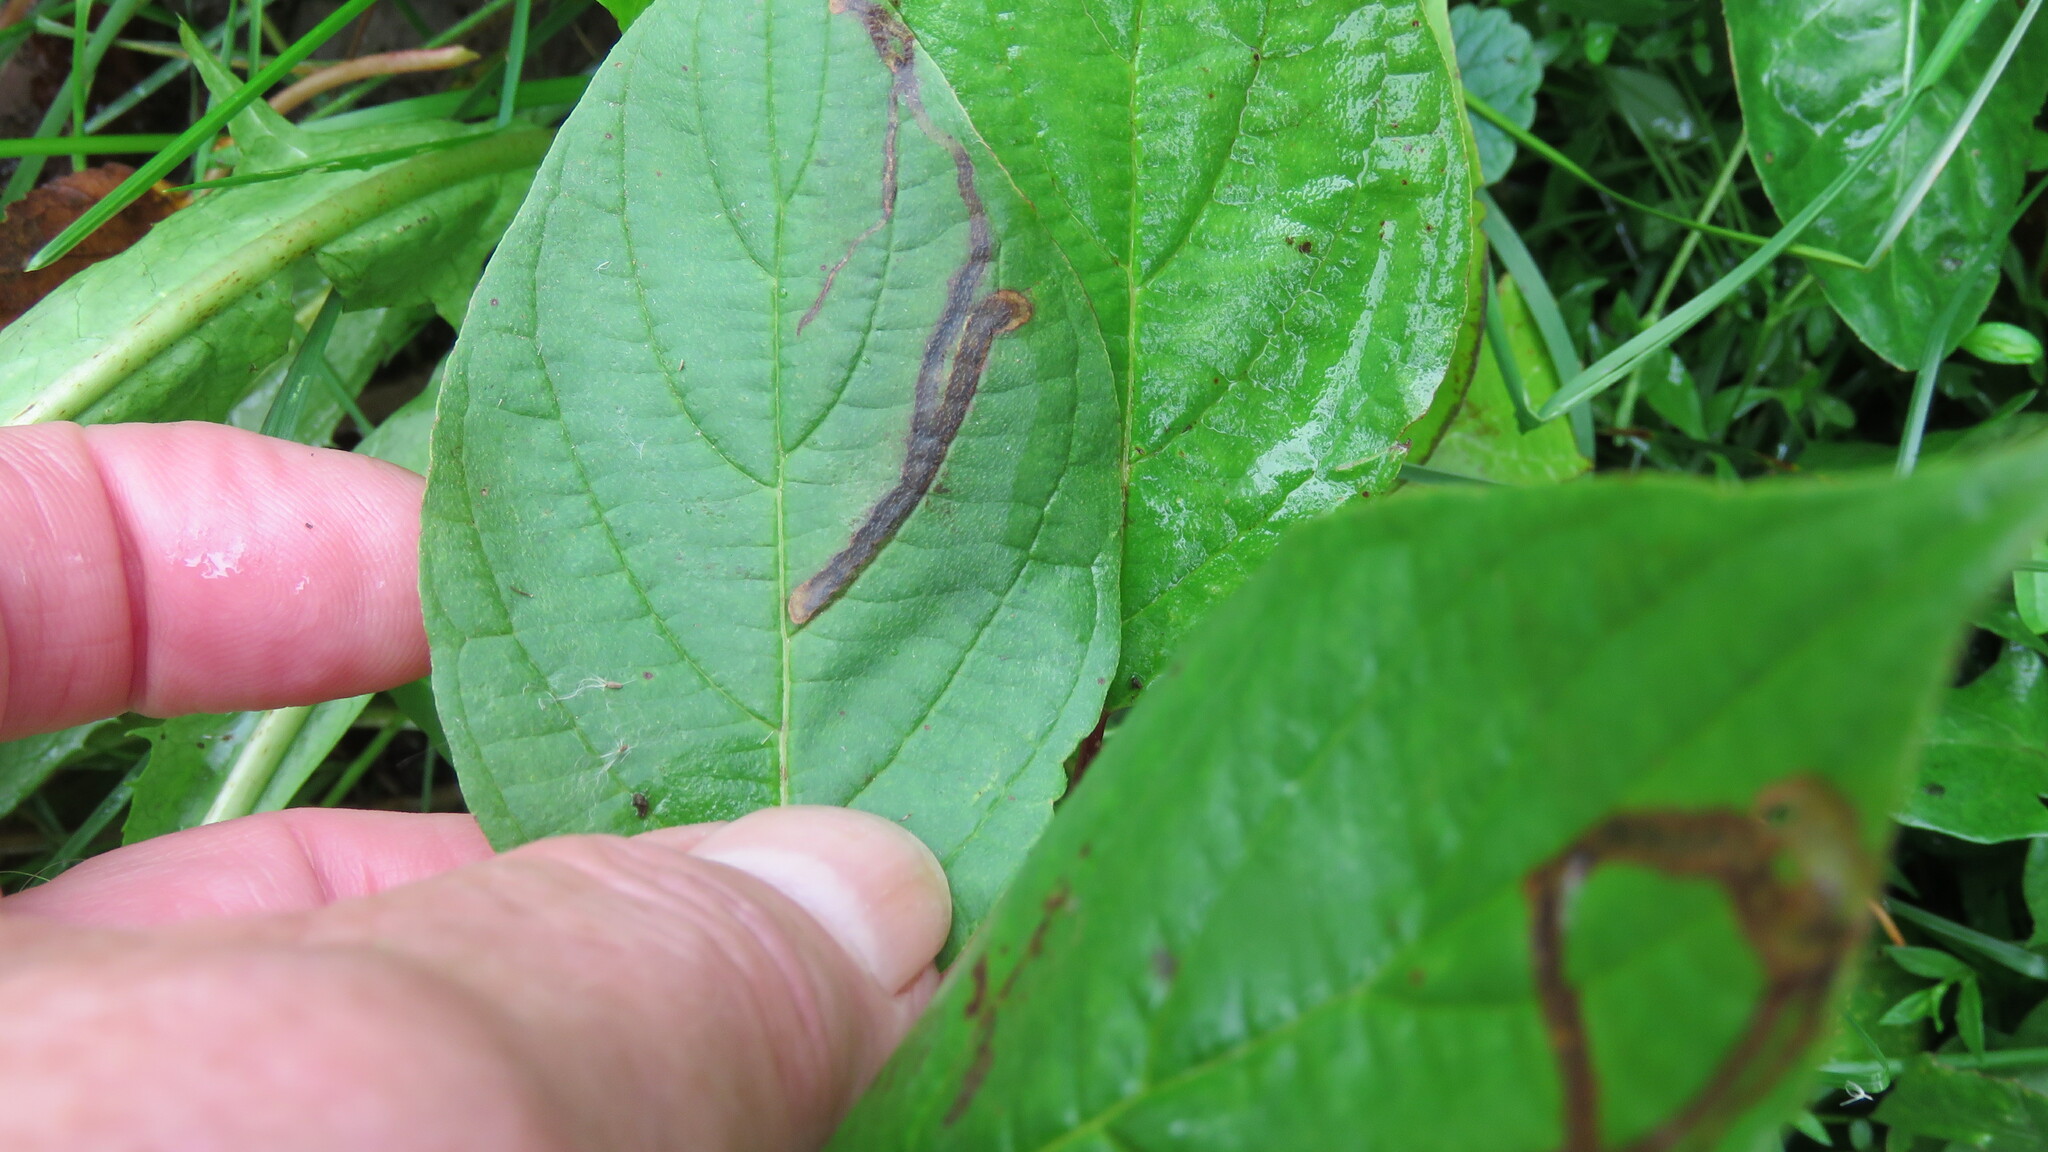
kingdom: Animalia
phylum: Arthropoda
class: Insecta
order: Diptera
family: Agromyzidae
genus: Phytomyza
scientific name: Phytomyza agromyzina
